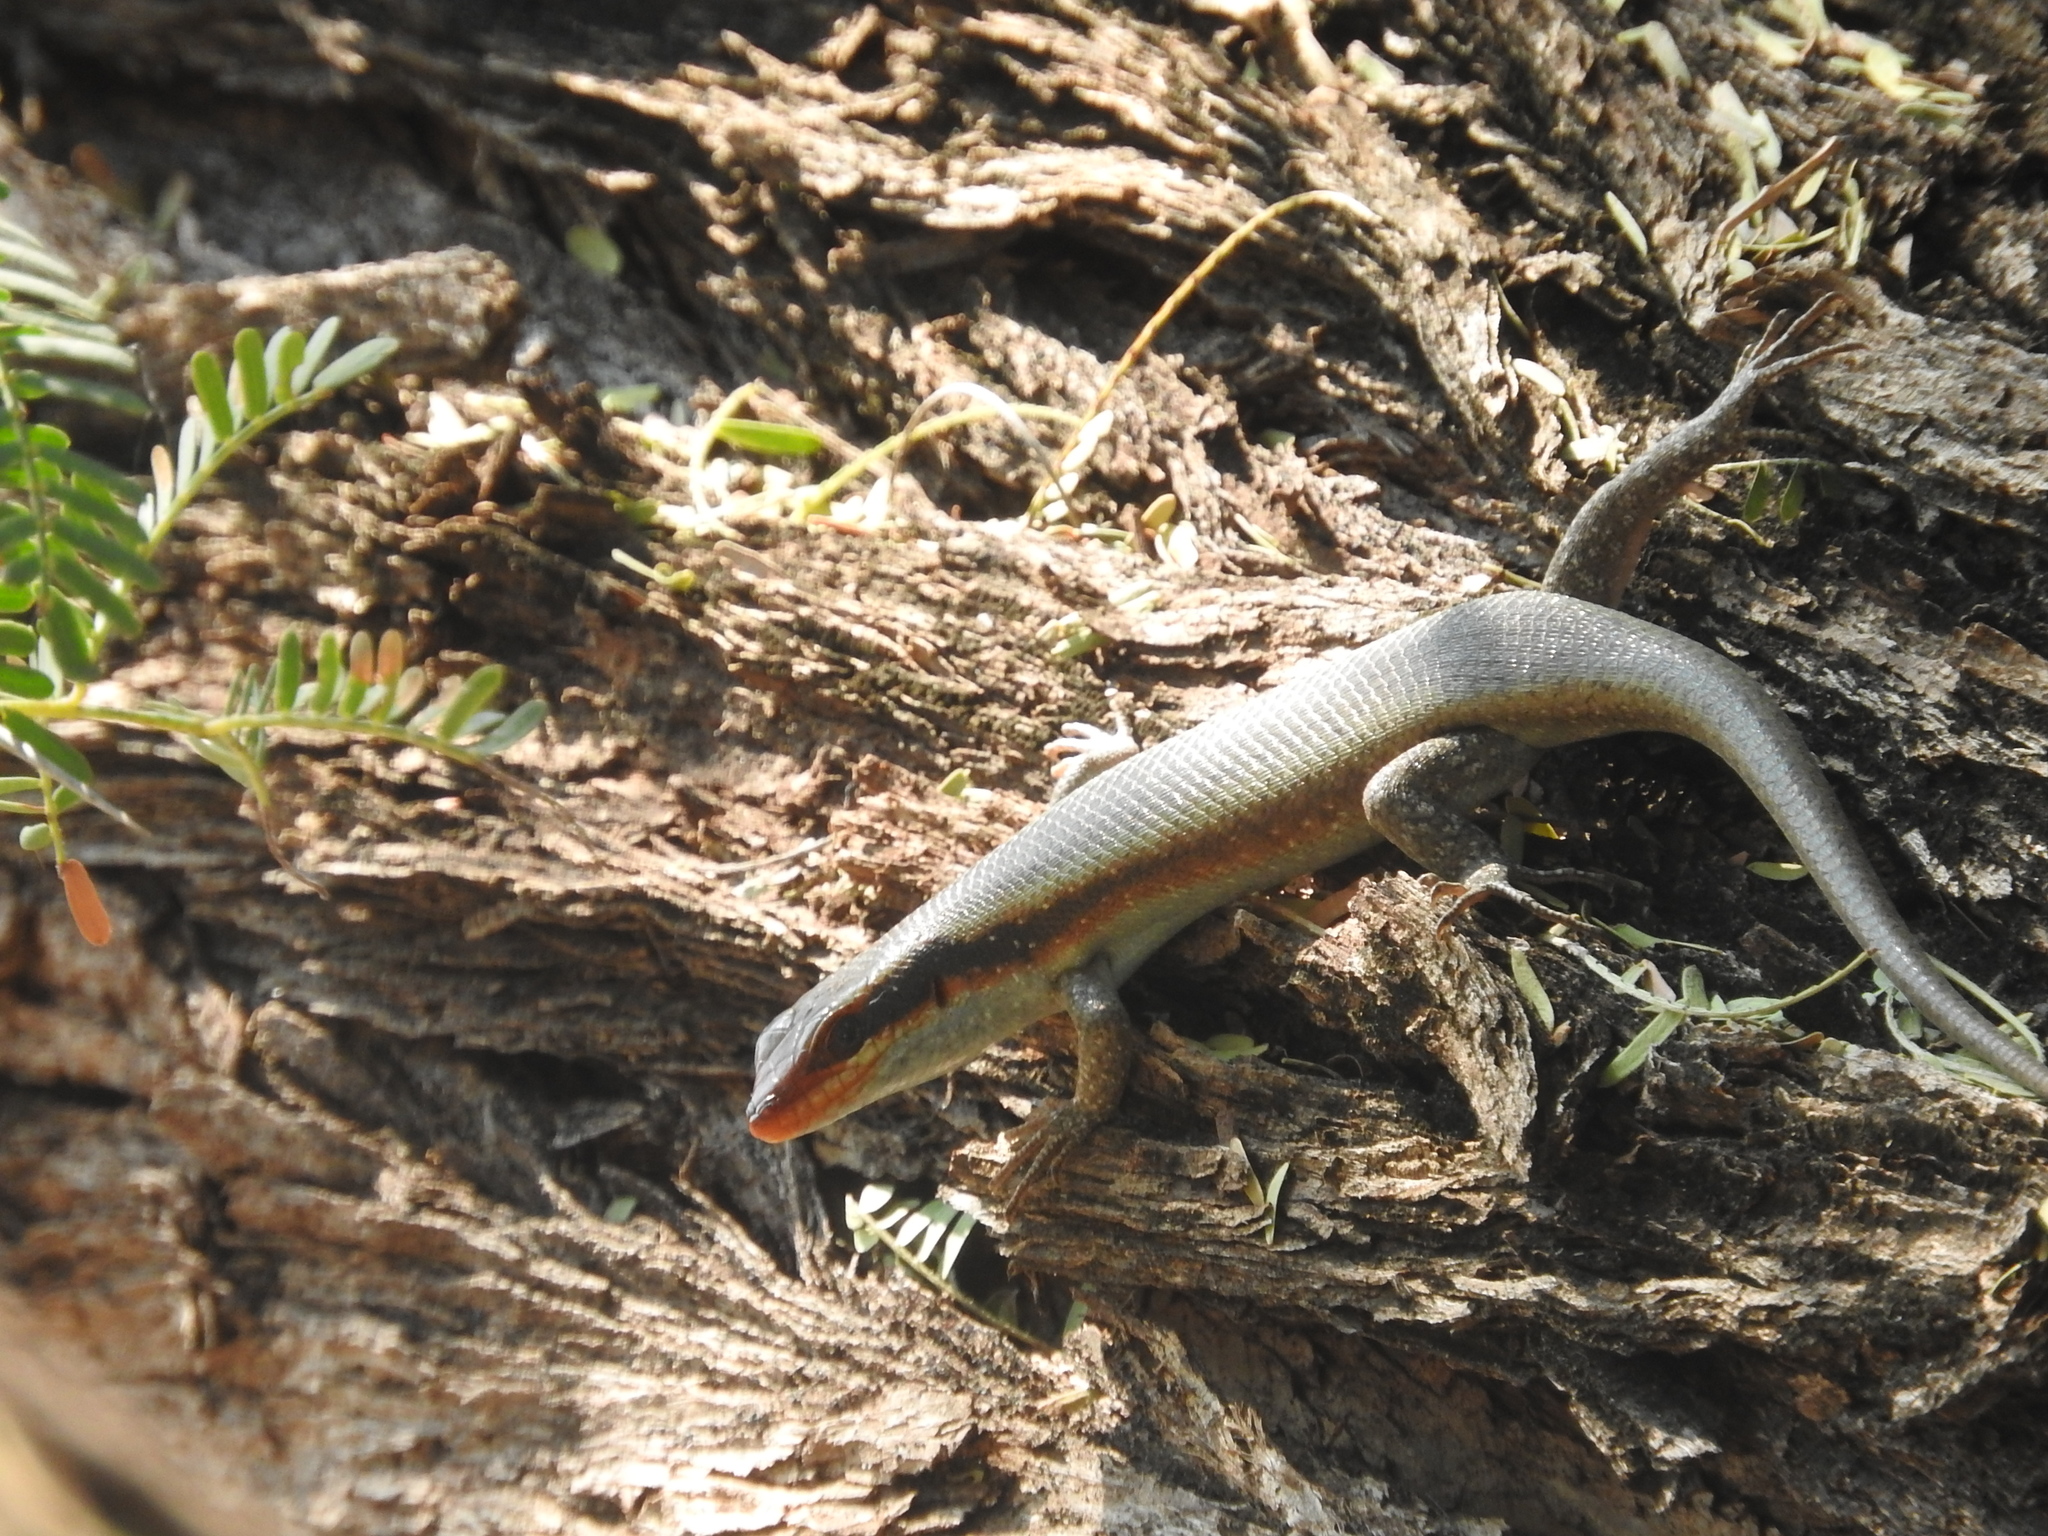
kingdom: Animalia
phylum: Chordata
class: Squamata
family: Scincidae
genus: Trachylepis
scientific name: Trachylepis wahlbergii
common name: Wahlberg’s striped skink
